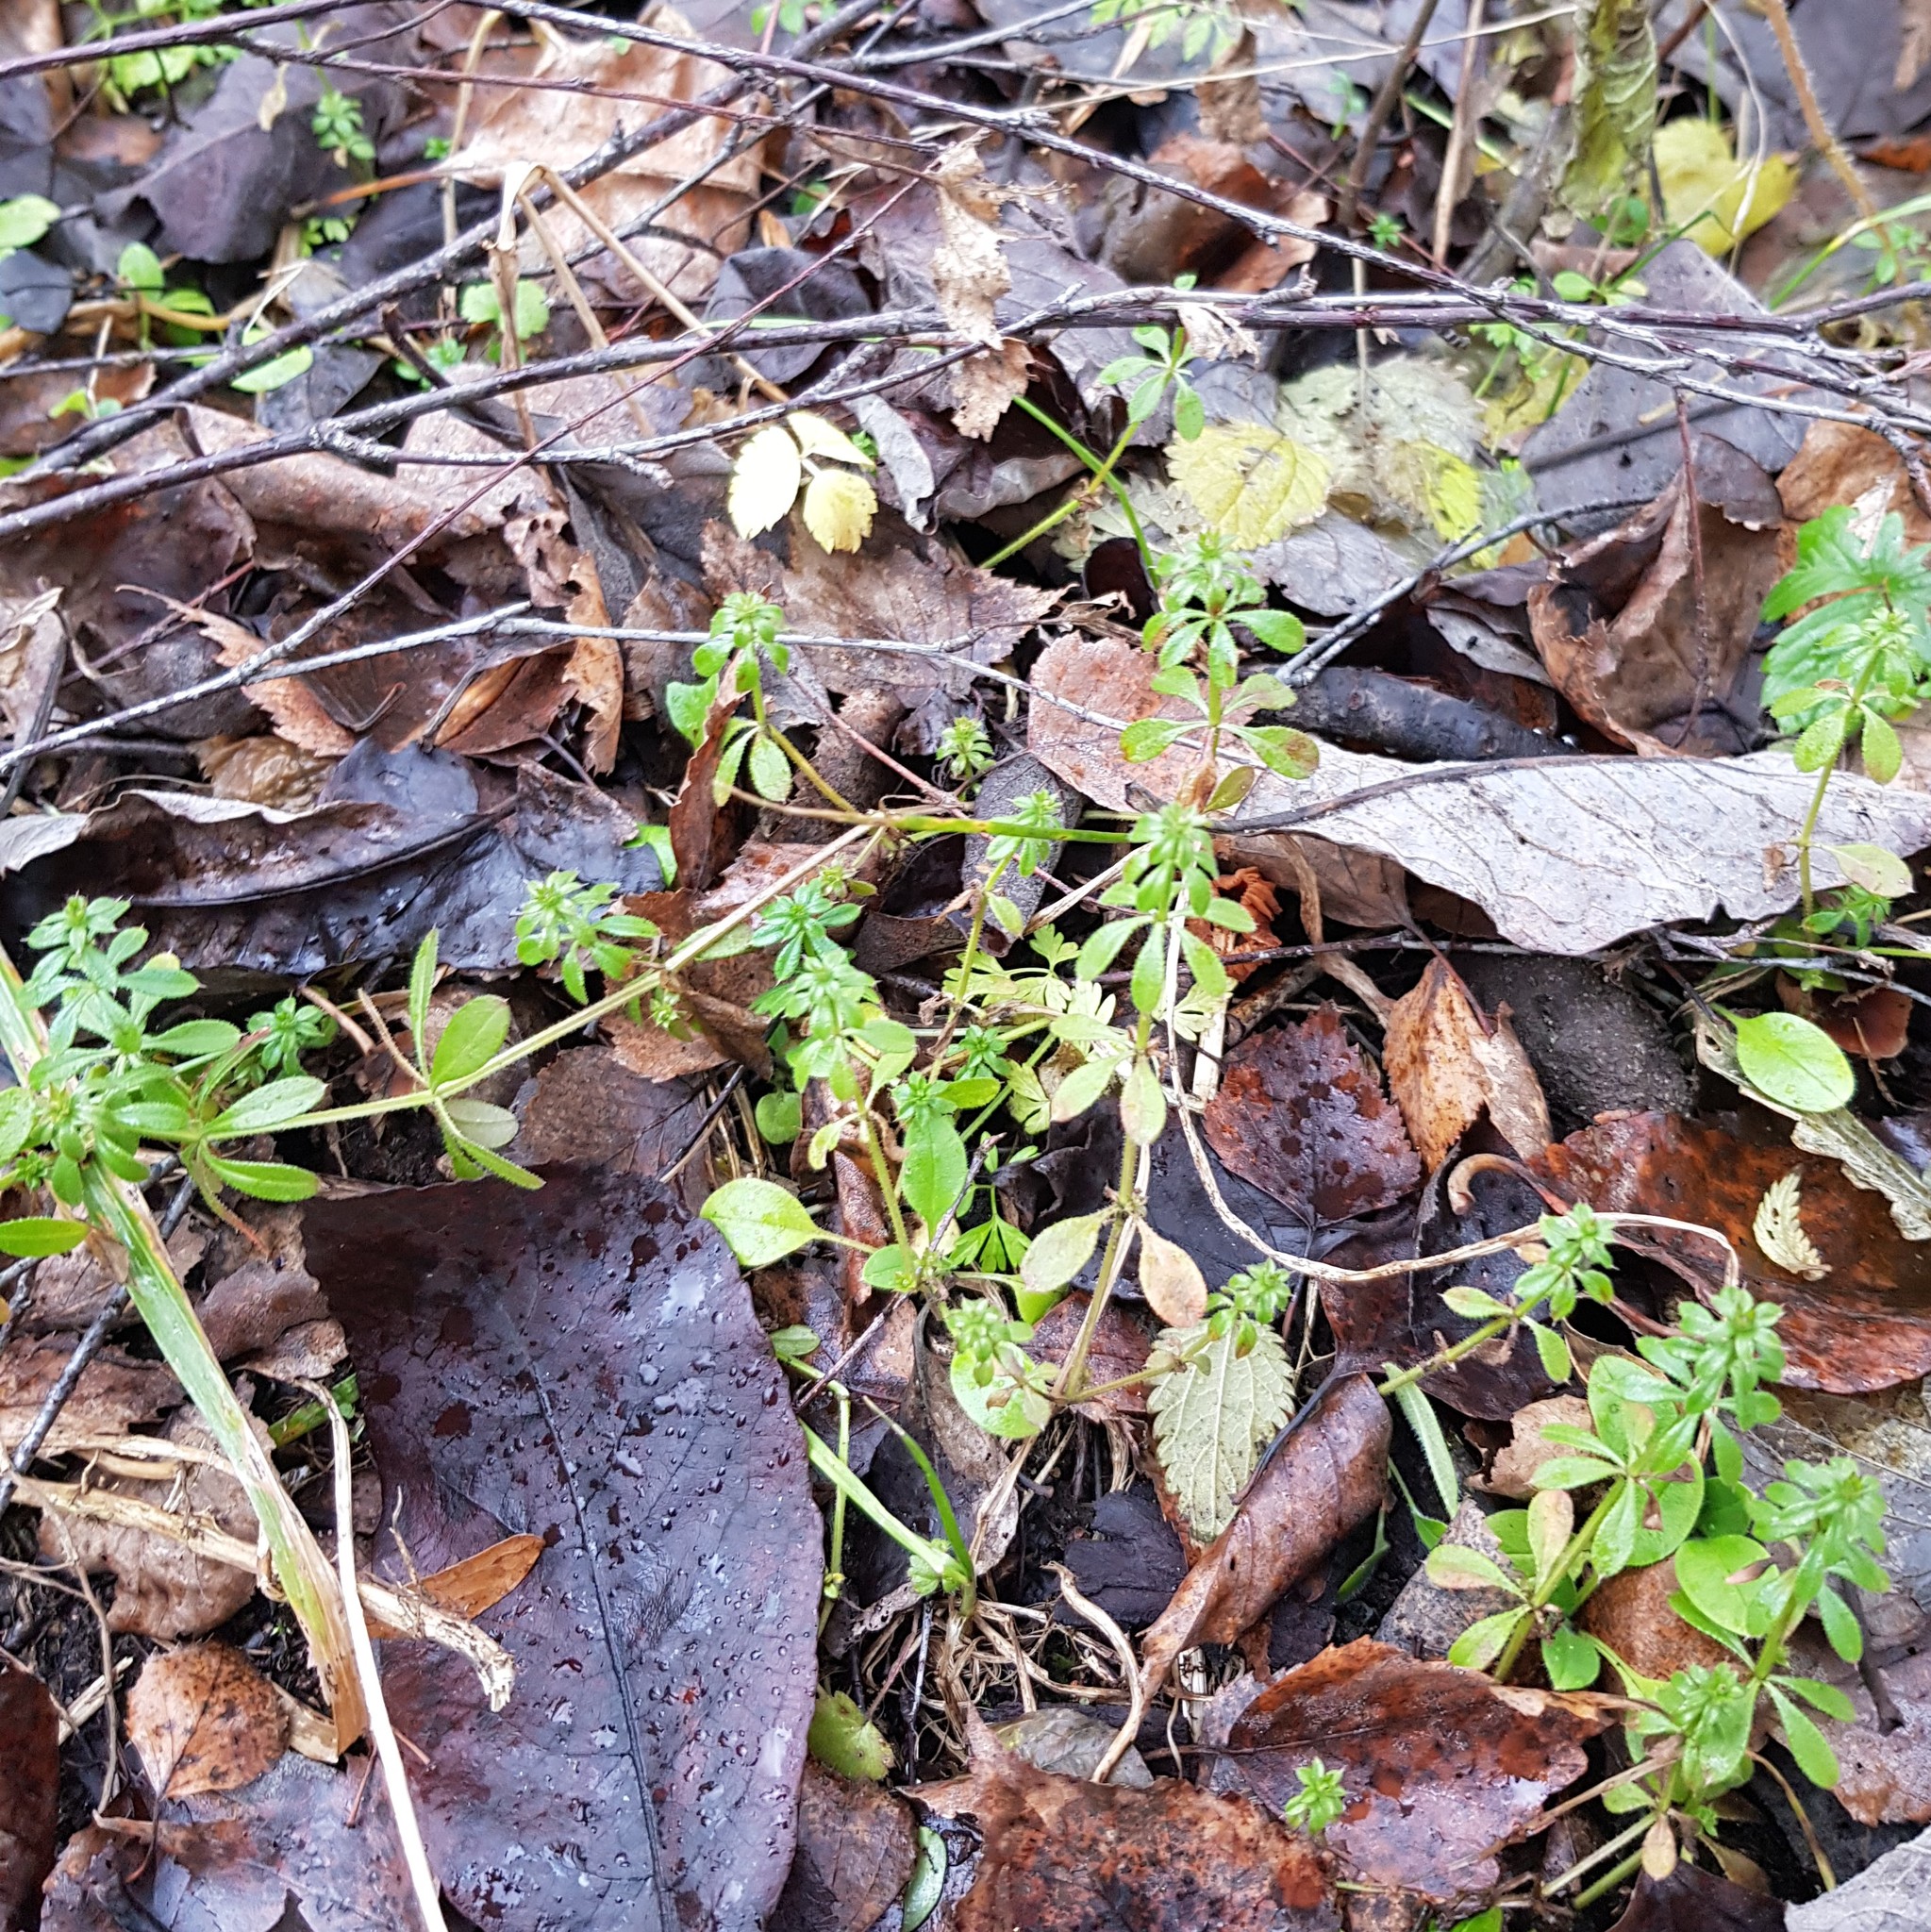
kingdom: Plantae
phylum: Tracheophyta
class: Magnoliopsida
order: Gentianales
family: Rubiaceae
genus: Galium
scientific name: Galium aparine
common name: Cleavers
